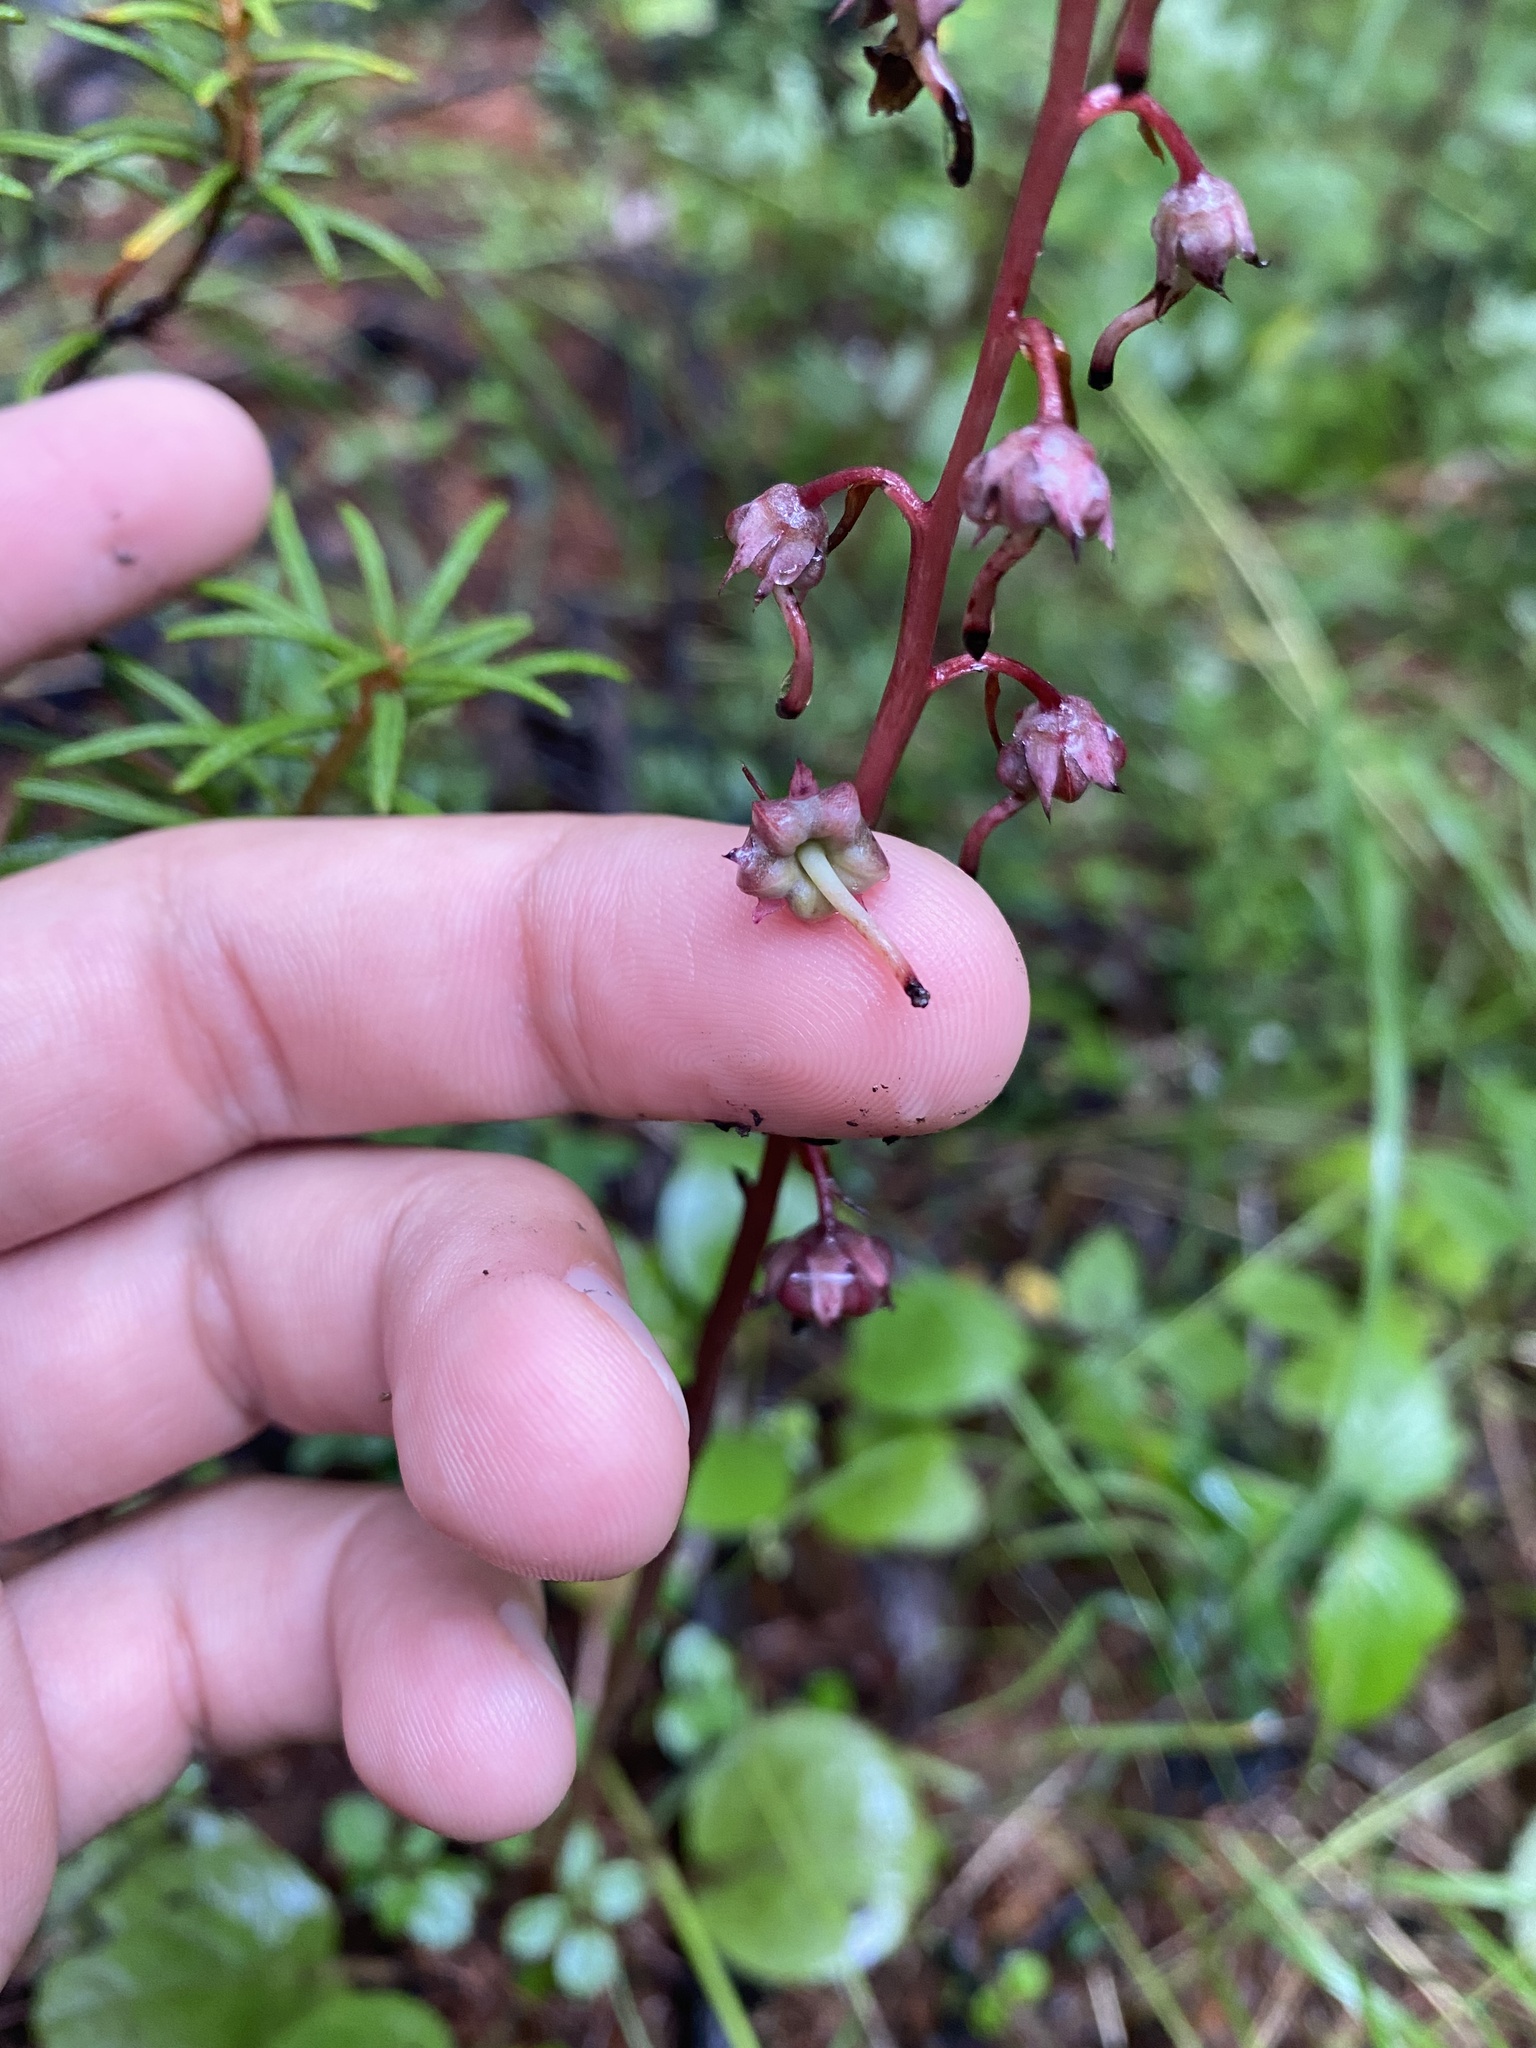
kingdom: Plantae
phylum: Tracheophyta
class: Magnoliopsida
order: Ericales
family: Ericaceae
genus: Pyrola
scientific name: Pyrola asarifolia
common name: Bog wintergreen
